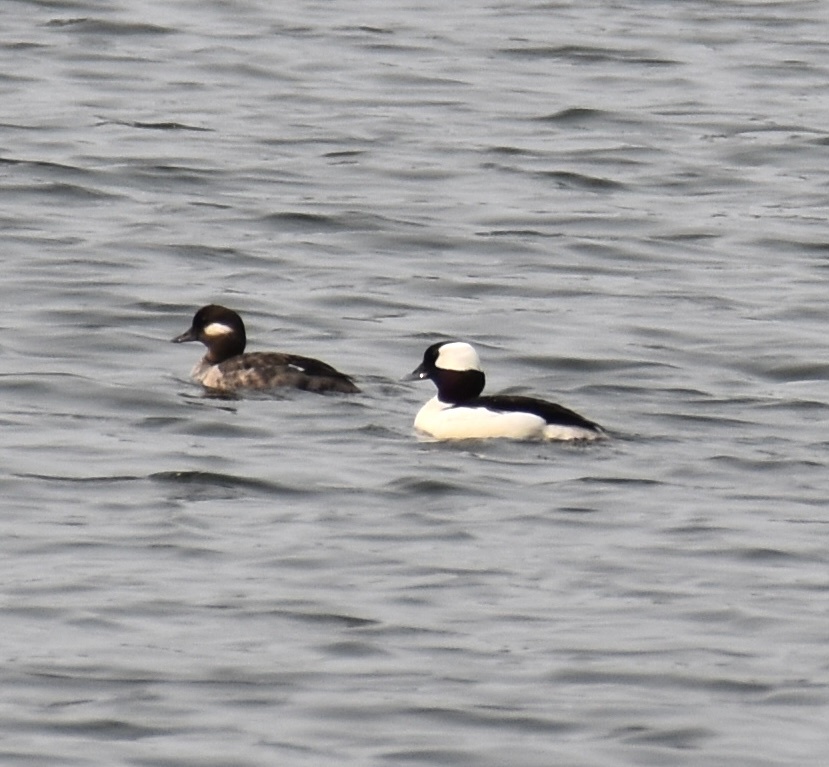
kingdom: Animalia
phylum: Chordata
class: Aves
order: Anseriformes
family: Anatidae
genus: Bucephala
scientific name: Bucephala albeola
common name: Bufflehead
